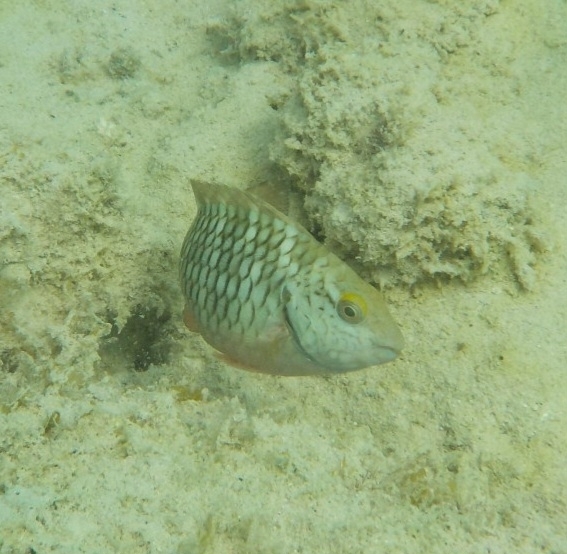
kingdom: Animalia
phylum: Chordata
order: Perciformes
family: Scaridae
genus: Sparisoma
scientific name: Sparisoma viride
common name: Stoplight parrotfish
